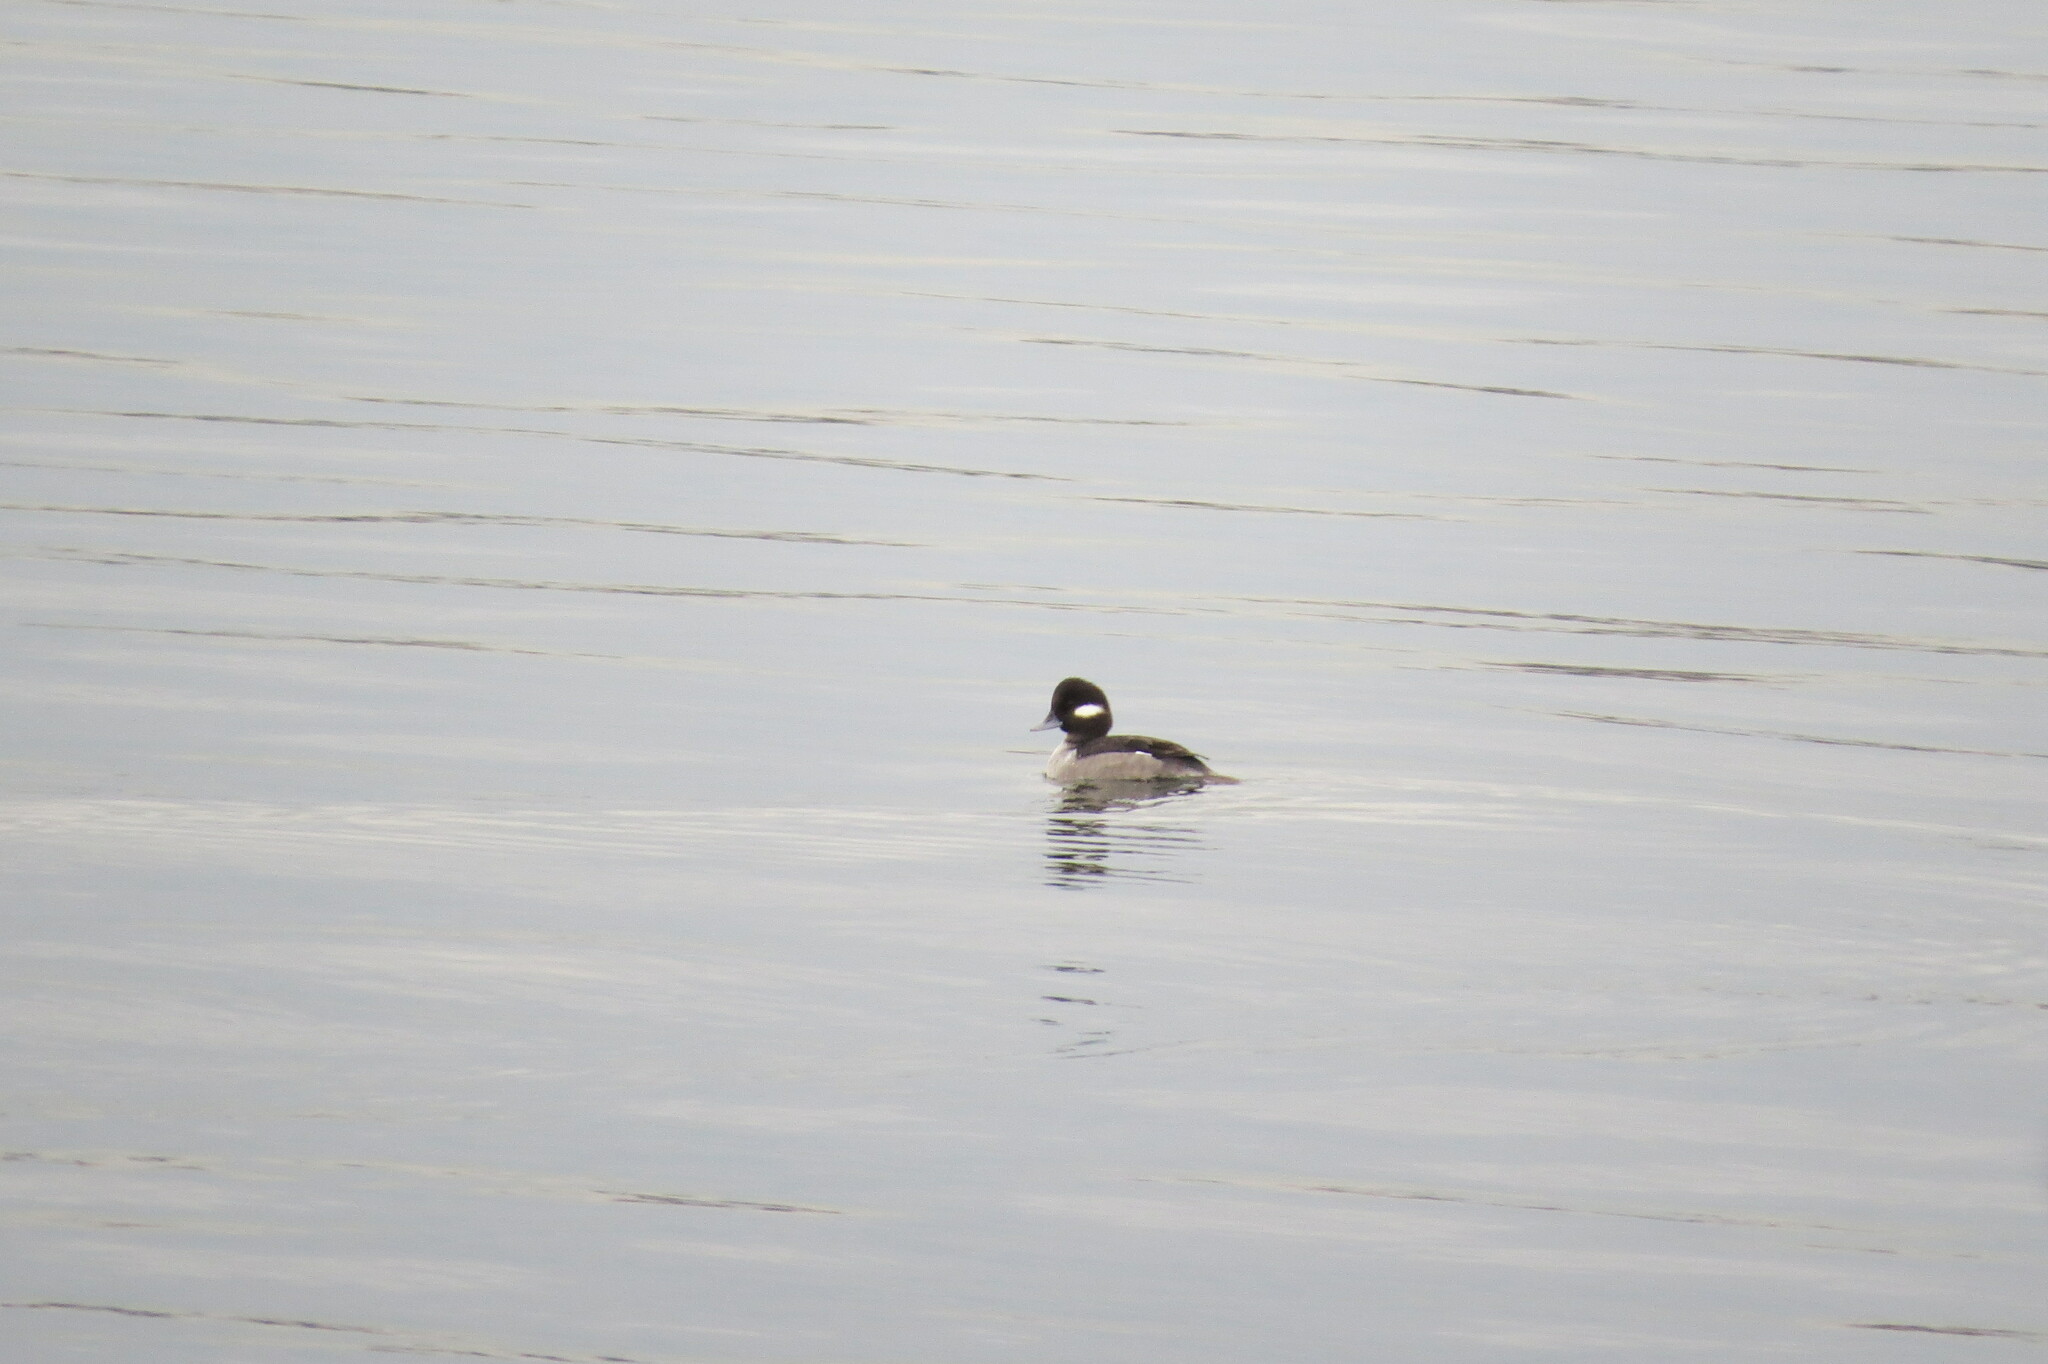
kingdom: Animalia
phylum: Chordata
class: Aves
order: Anseriformes
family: Anatidae
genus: Bucephala
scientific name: Bucephala albeola
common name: Bufflehead
